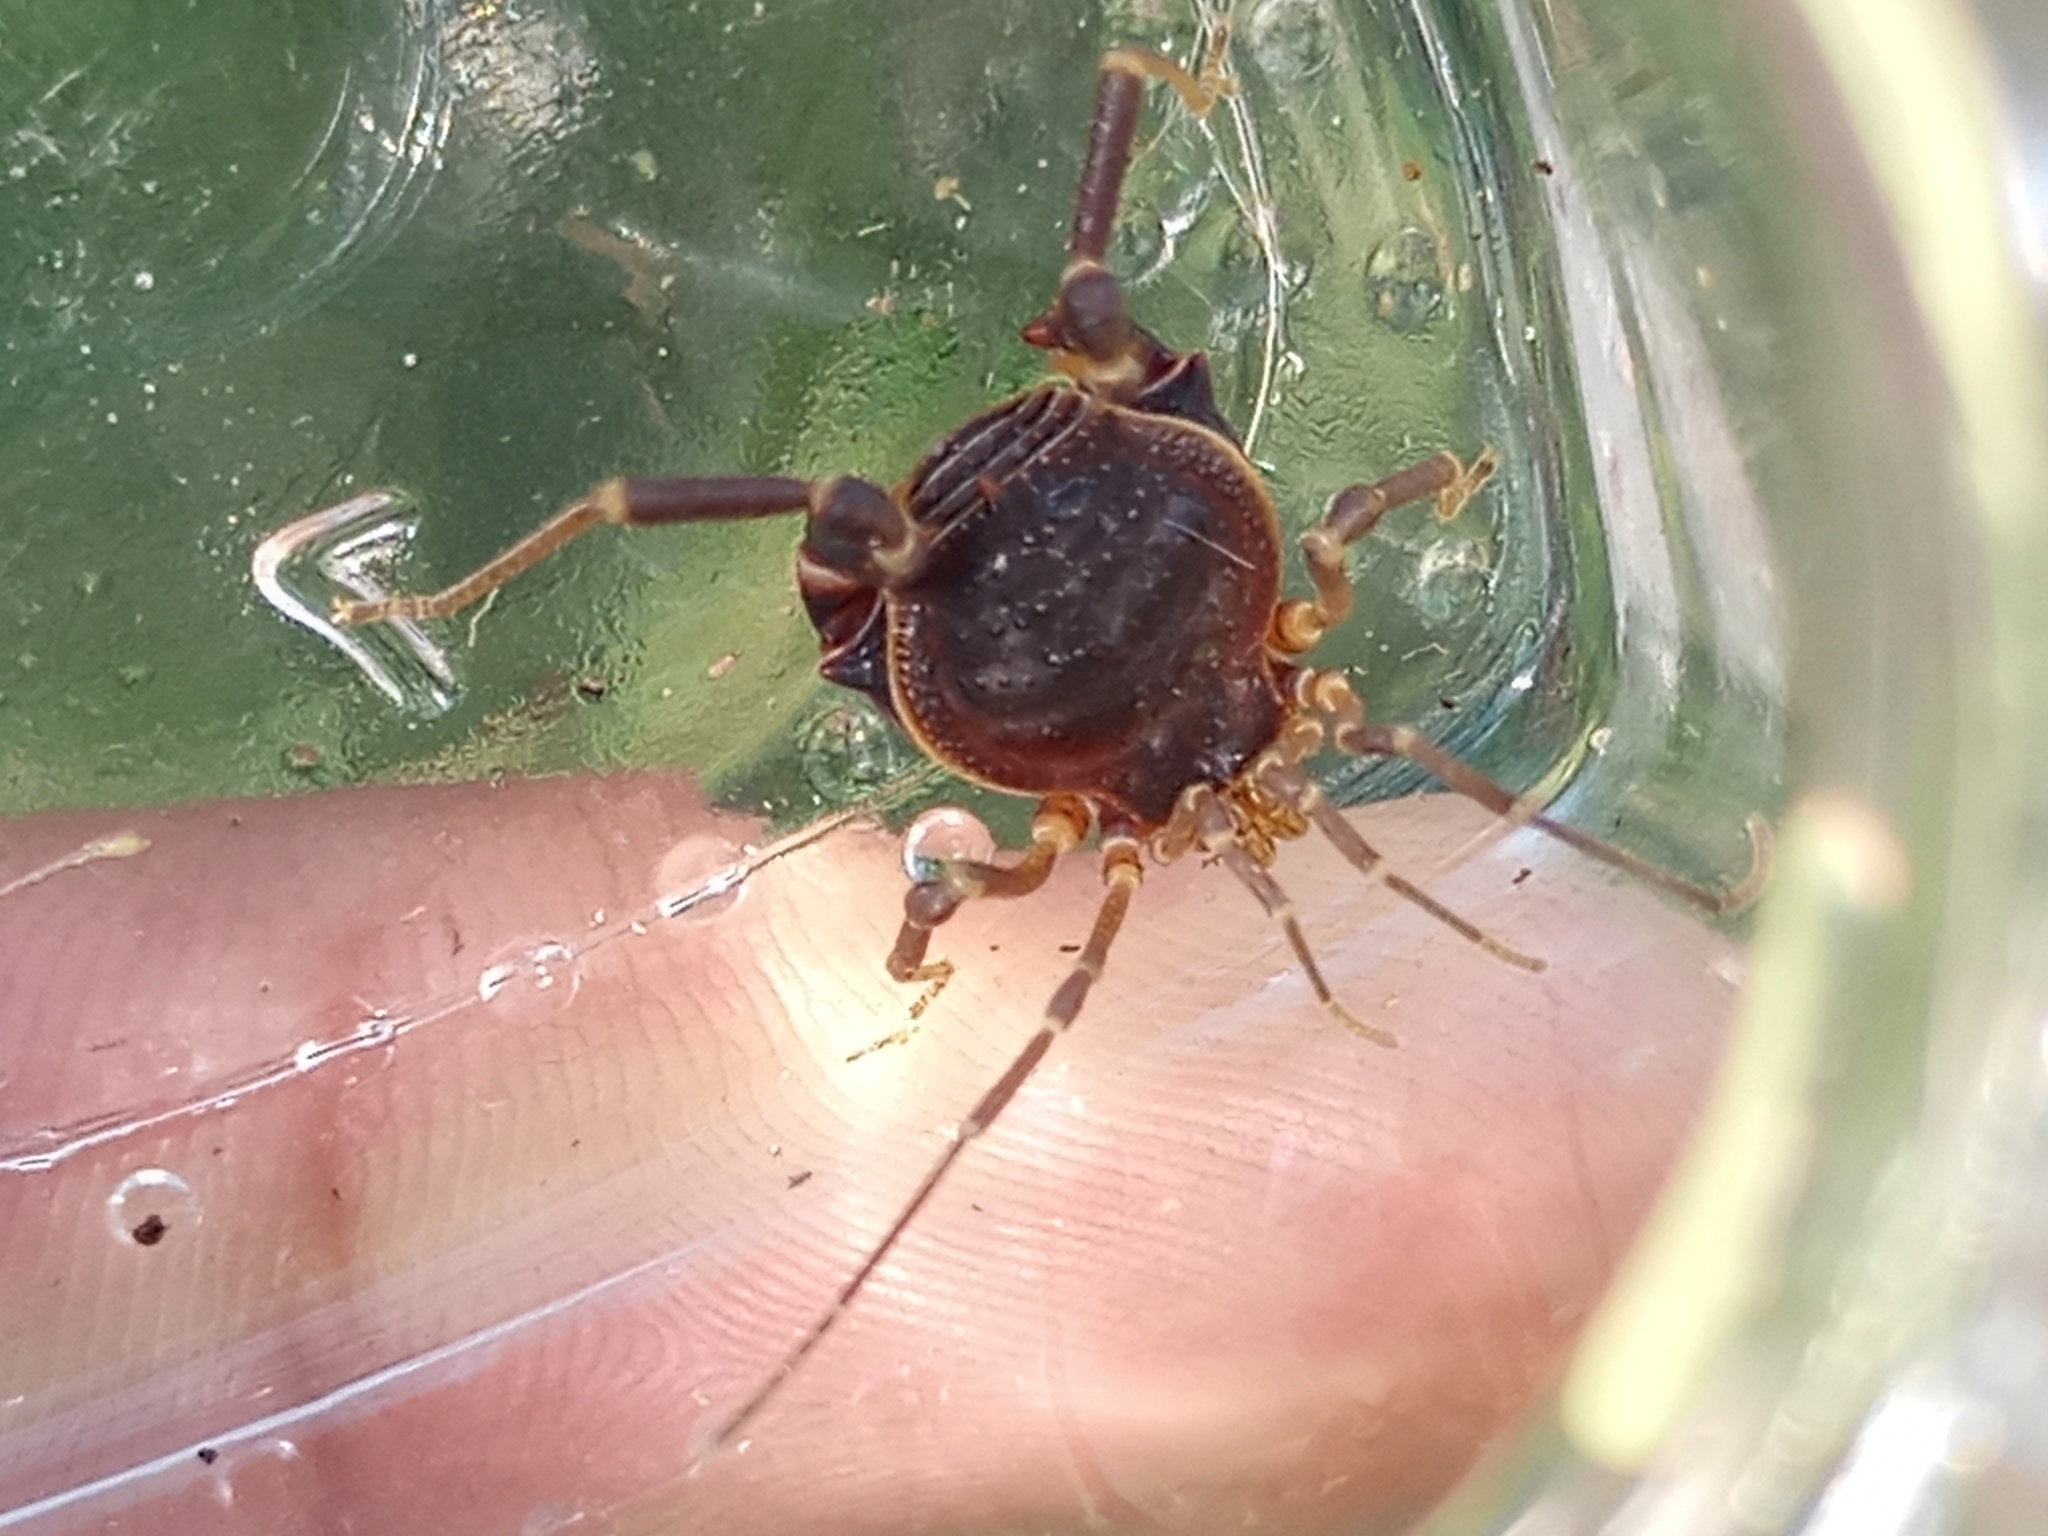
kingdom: Animalia
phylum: Arthropoda
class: Arachnida
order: Opiliones
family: Gonyleptidae
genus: Acanthopachylus
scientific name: Acanthopachylus robustus
